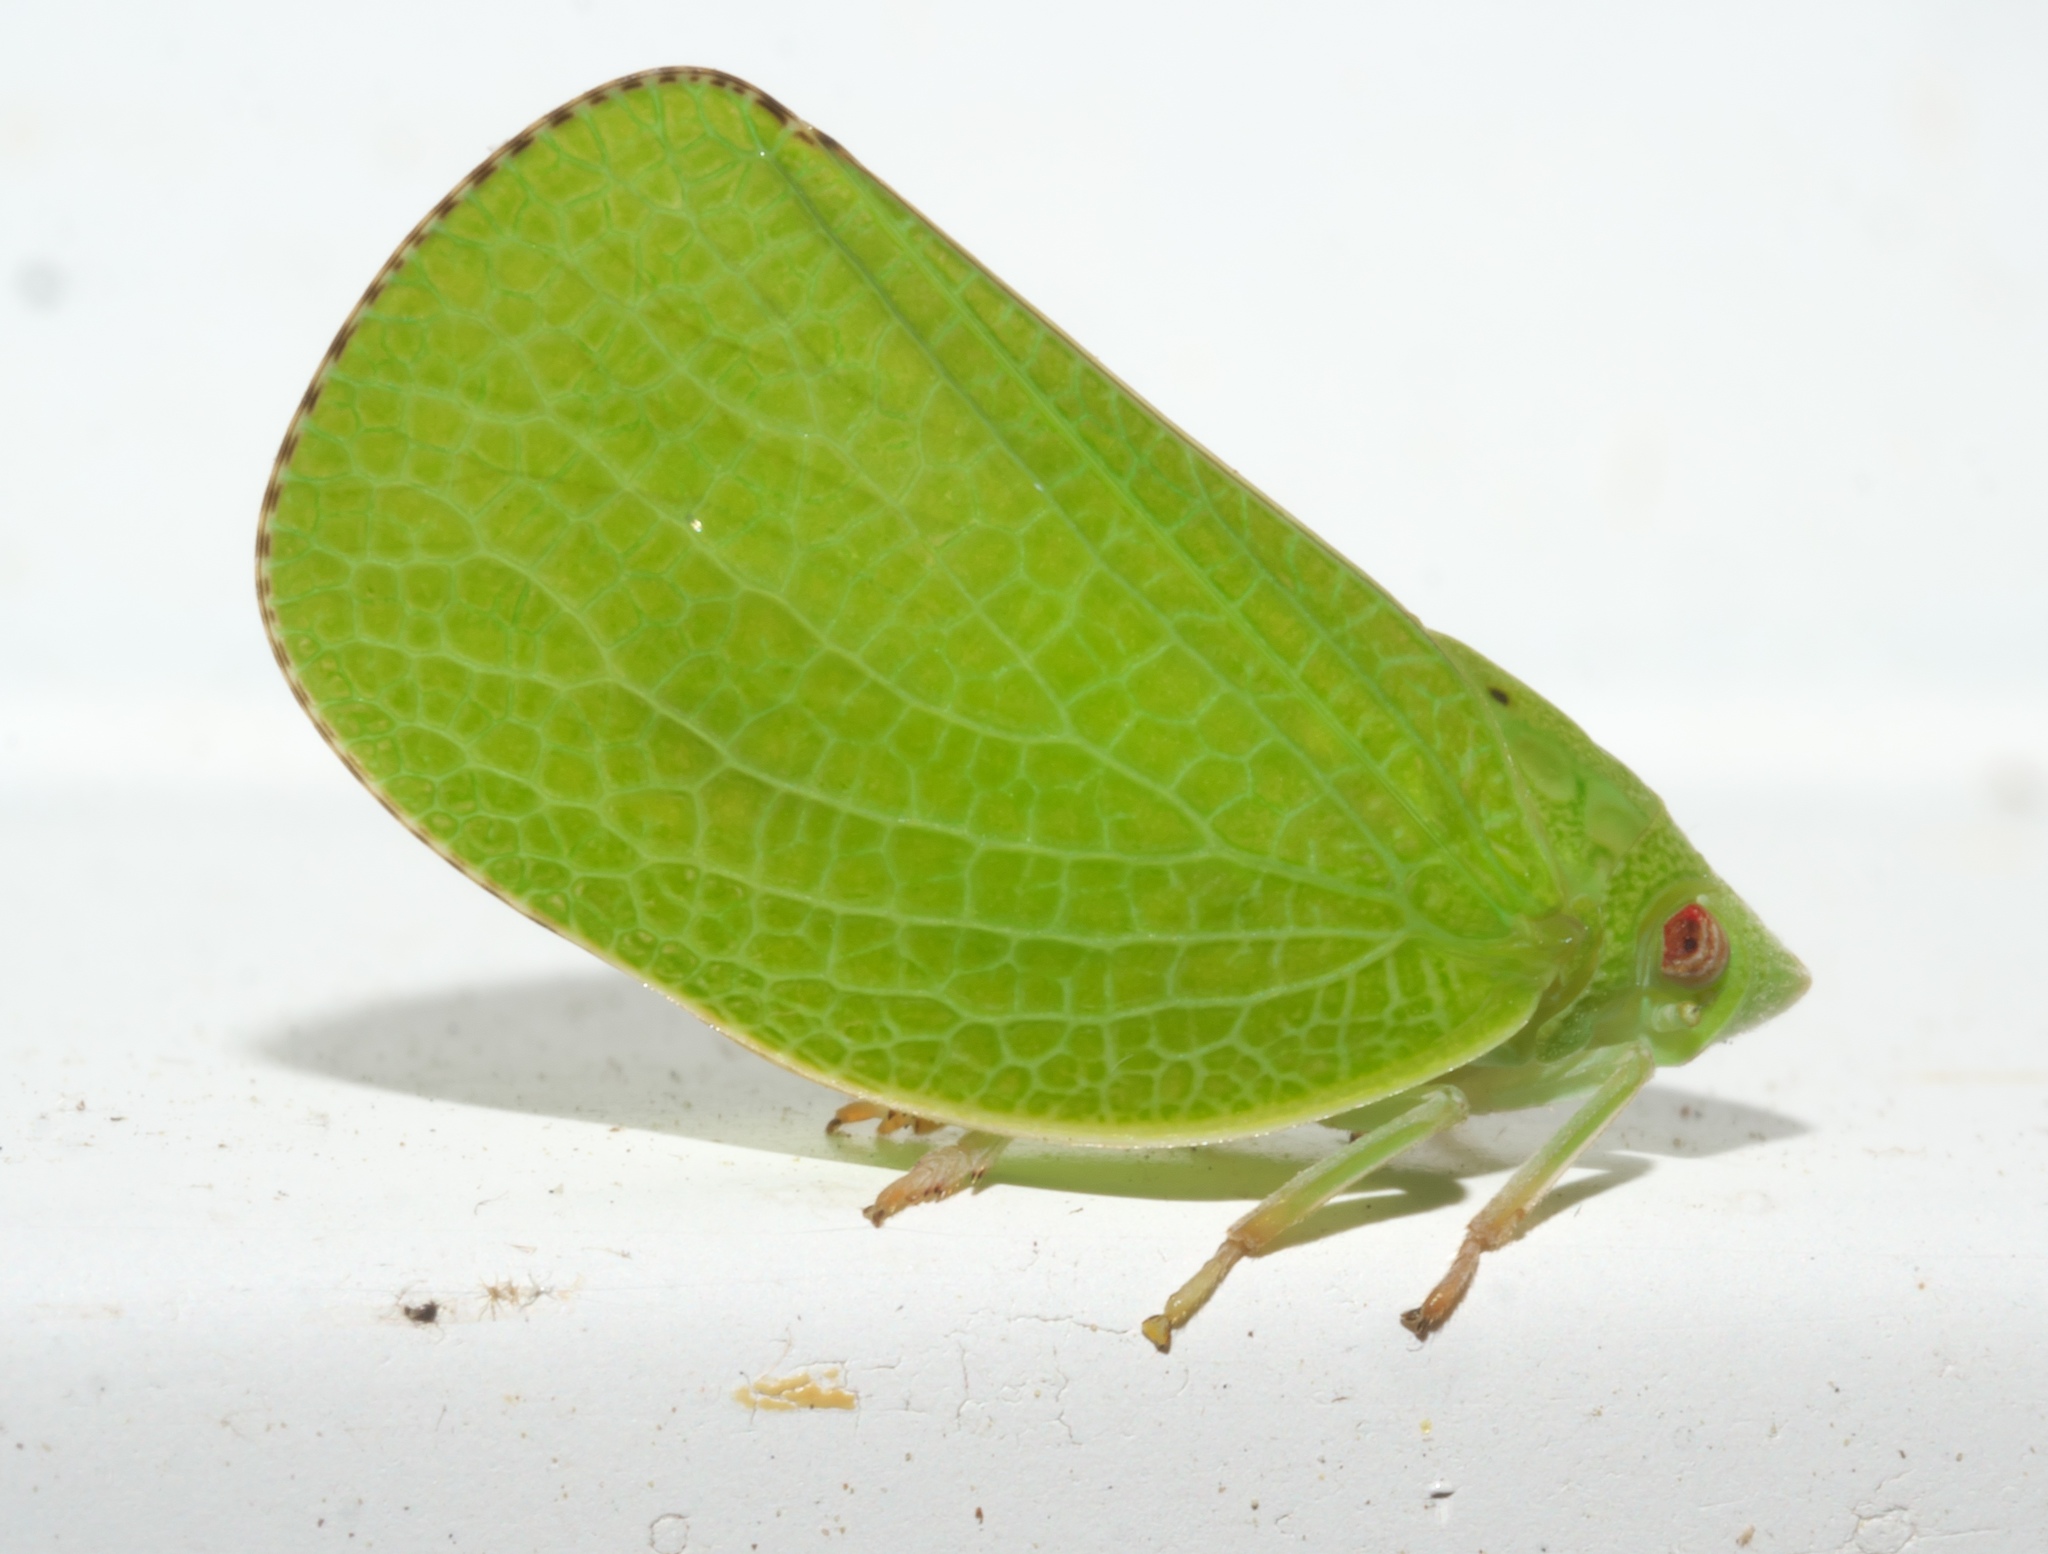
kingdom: Animalia
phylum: Arthropoda
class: Insecta
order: Hemiptera
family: Acanaloniidae
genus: Acanalonia
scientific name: Acanalonia conica
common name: Green cone-headed planthopper
